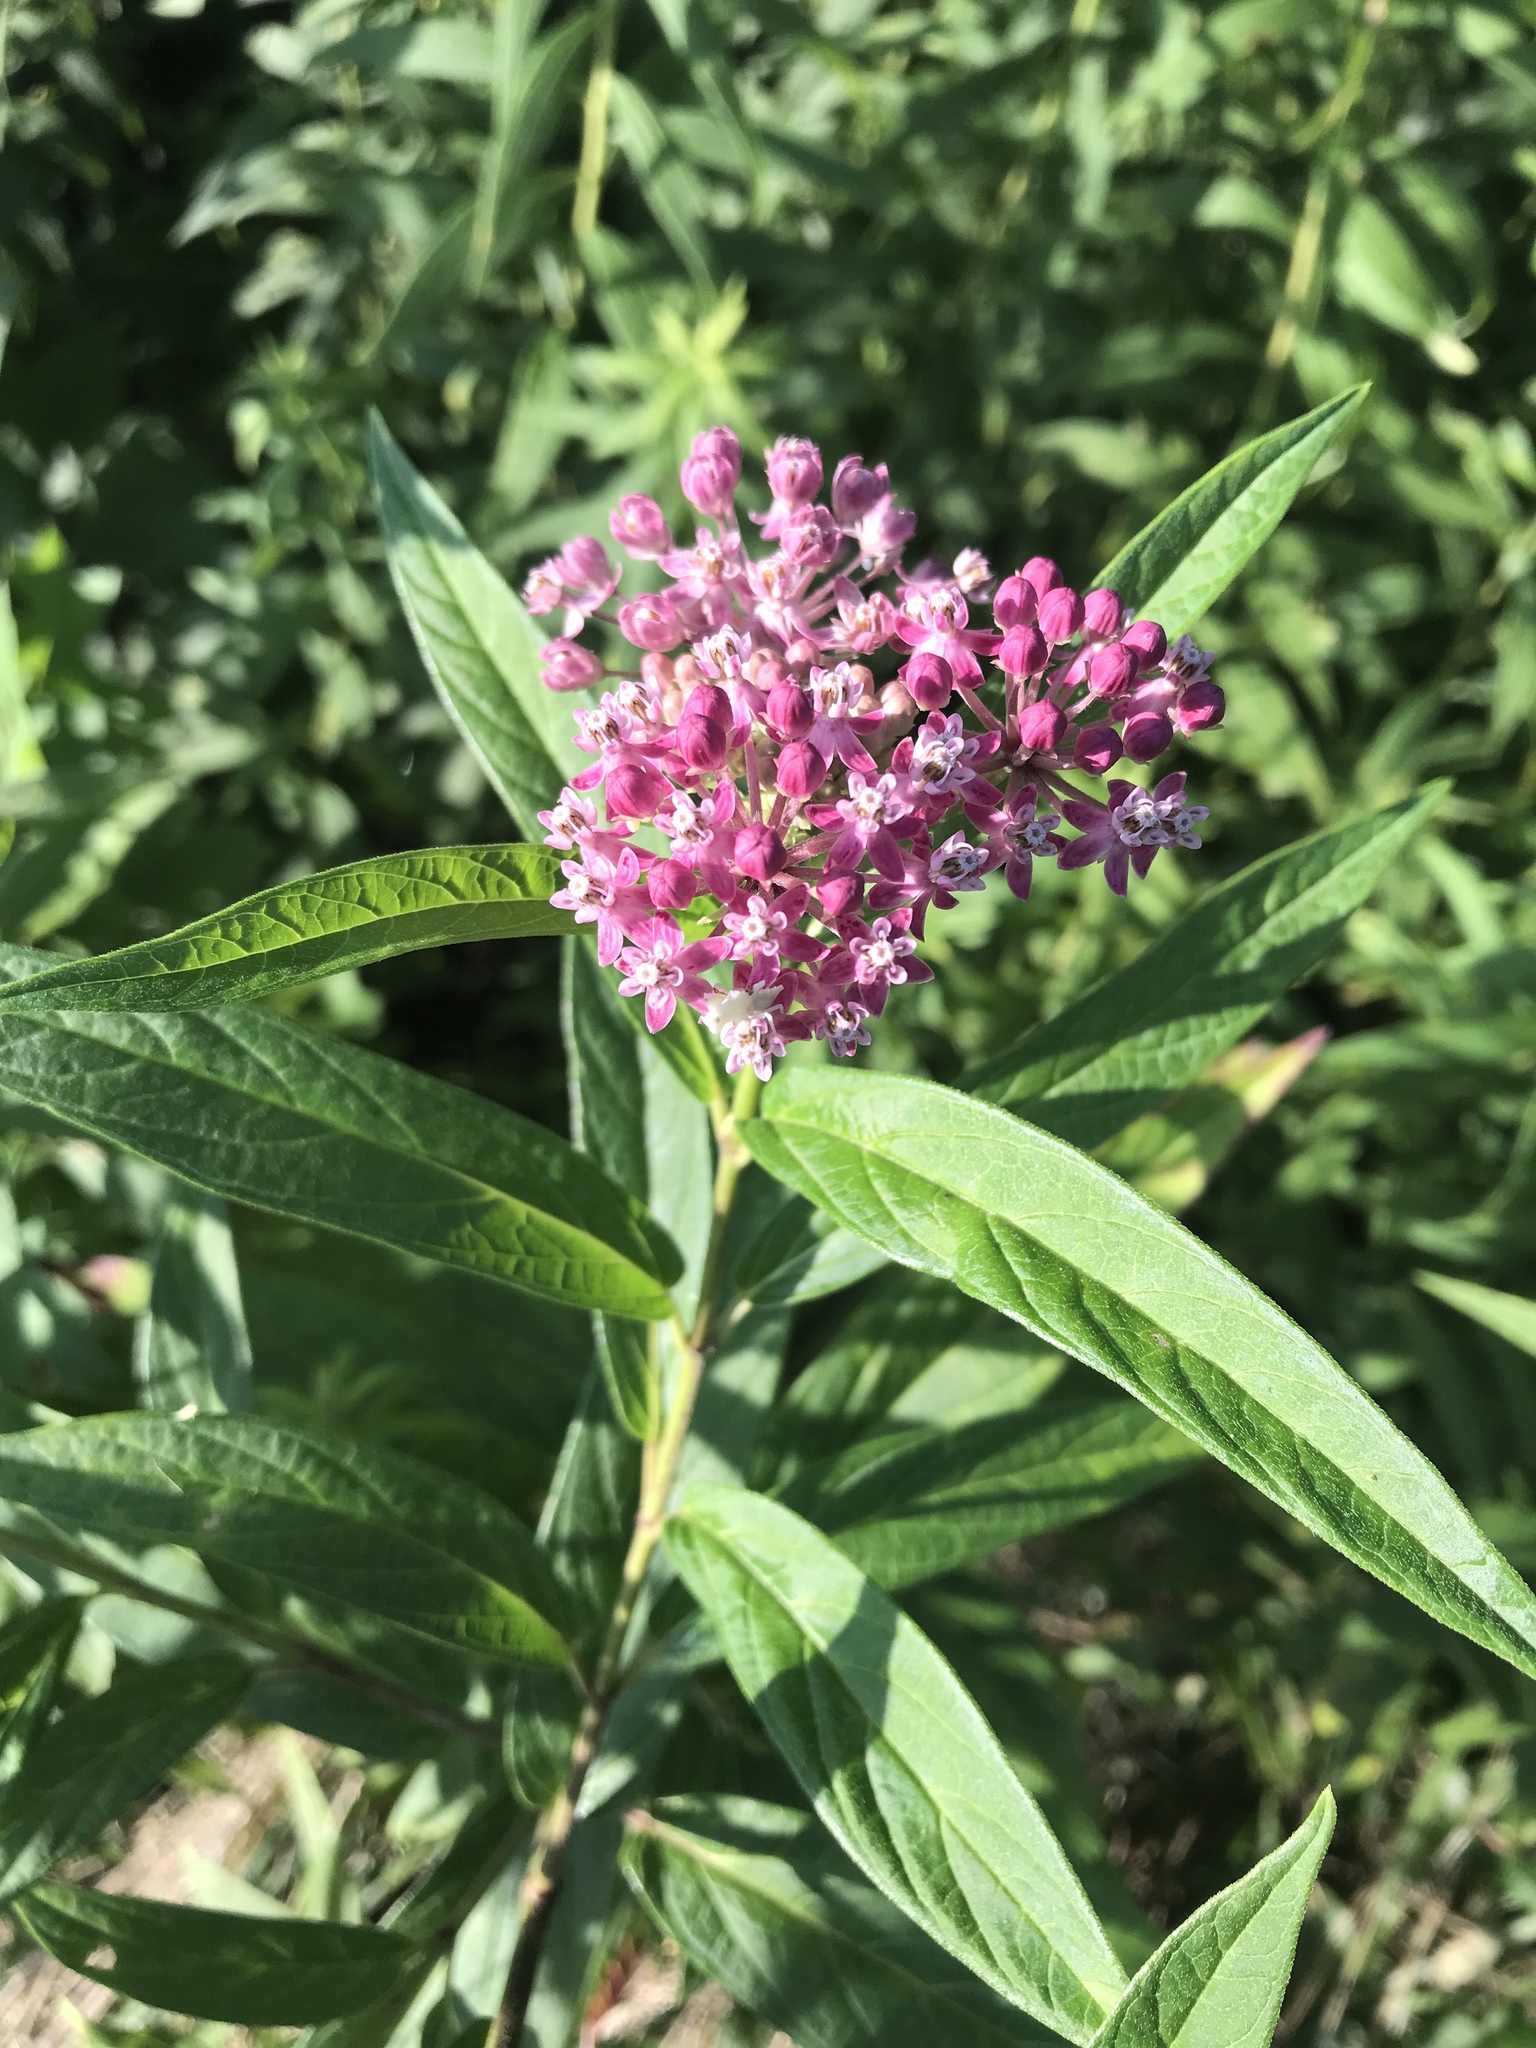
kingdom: Plantae
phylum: Tracheophyta
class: Magnoliopsida
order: Gentianales
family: Apocynaceae
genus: Asclepias
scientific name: Asclepias incarnata
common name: Swamp milkweed
